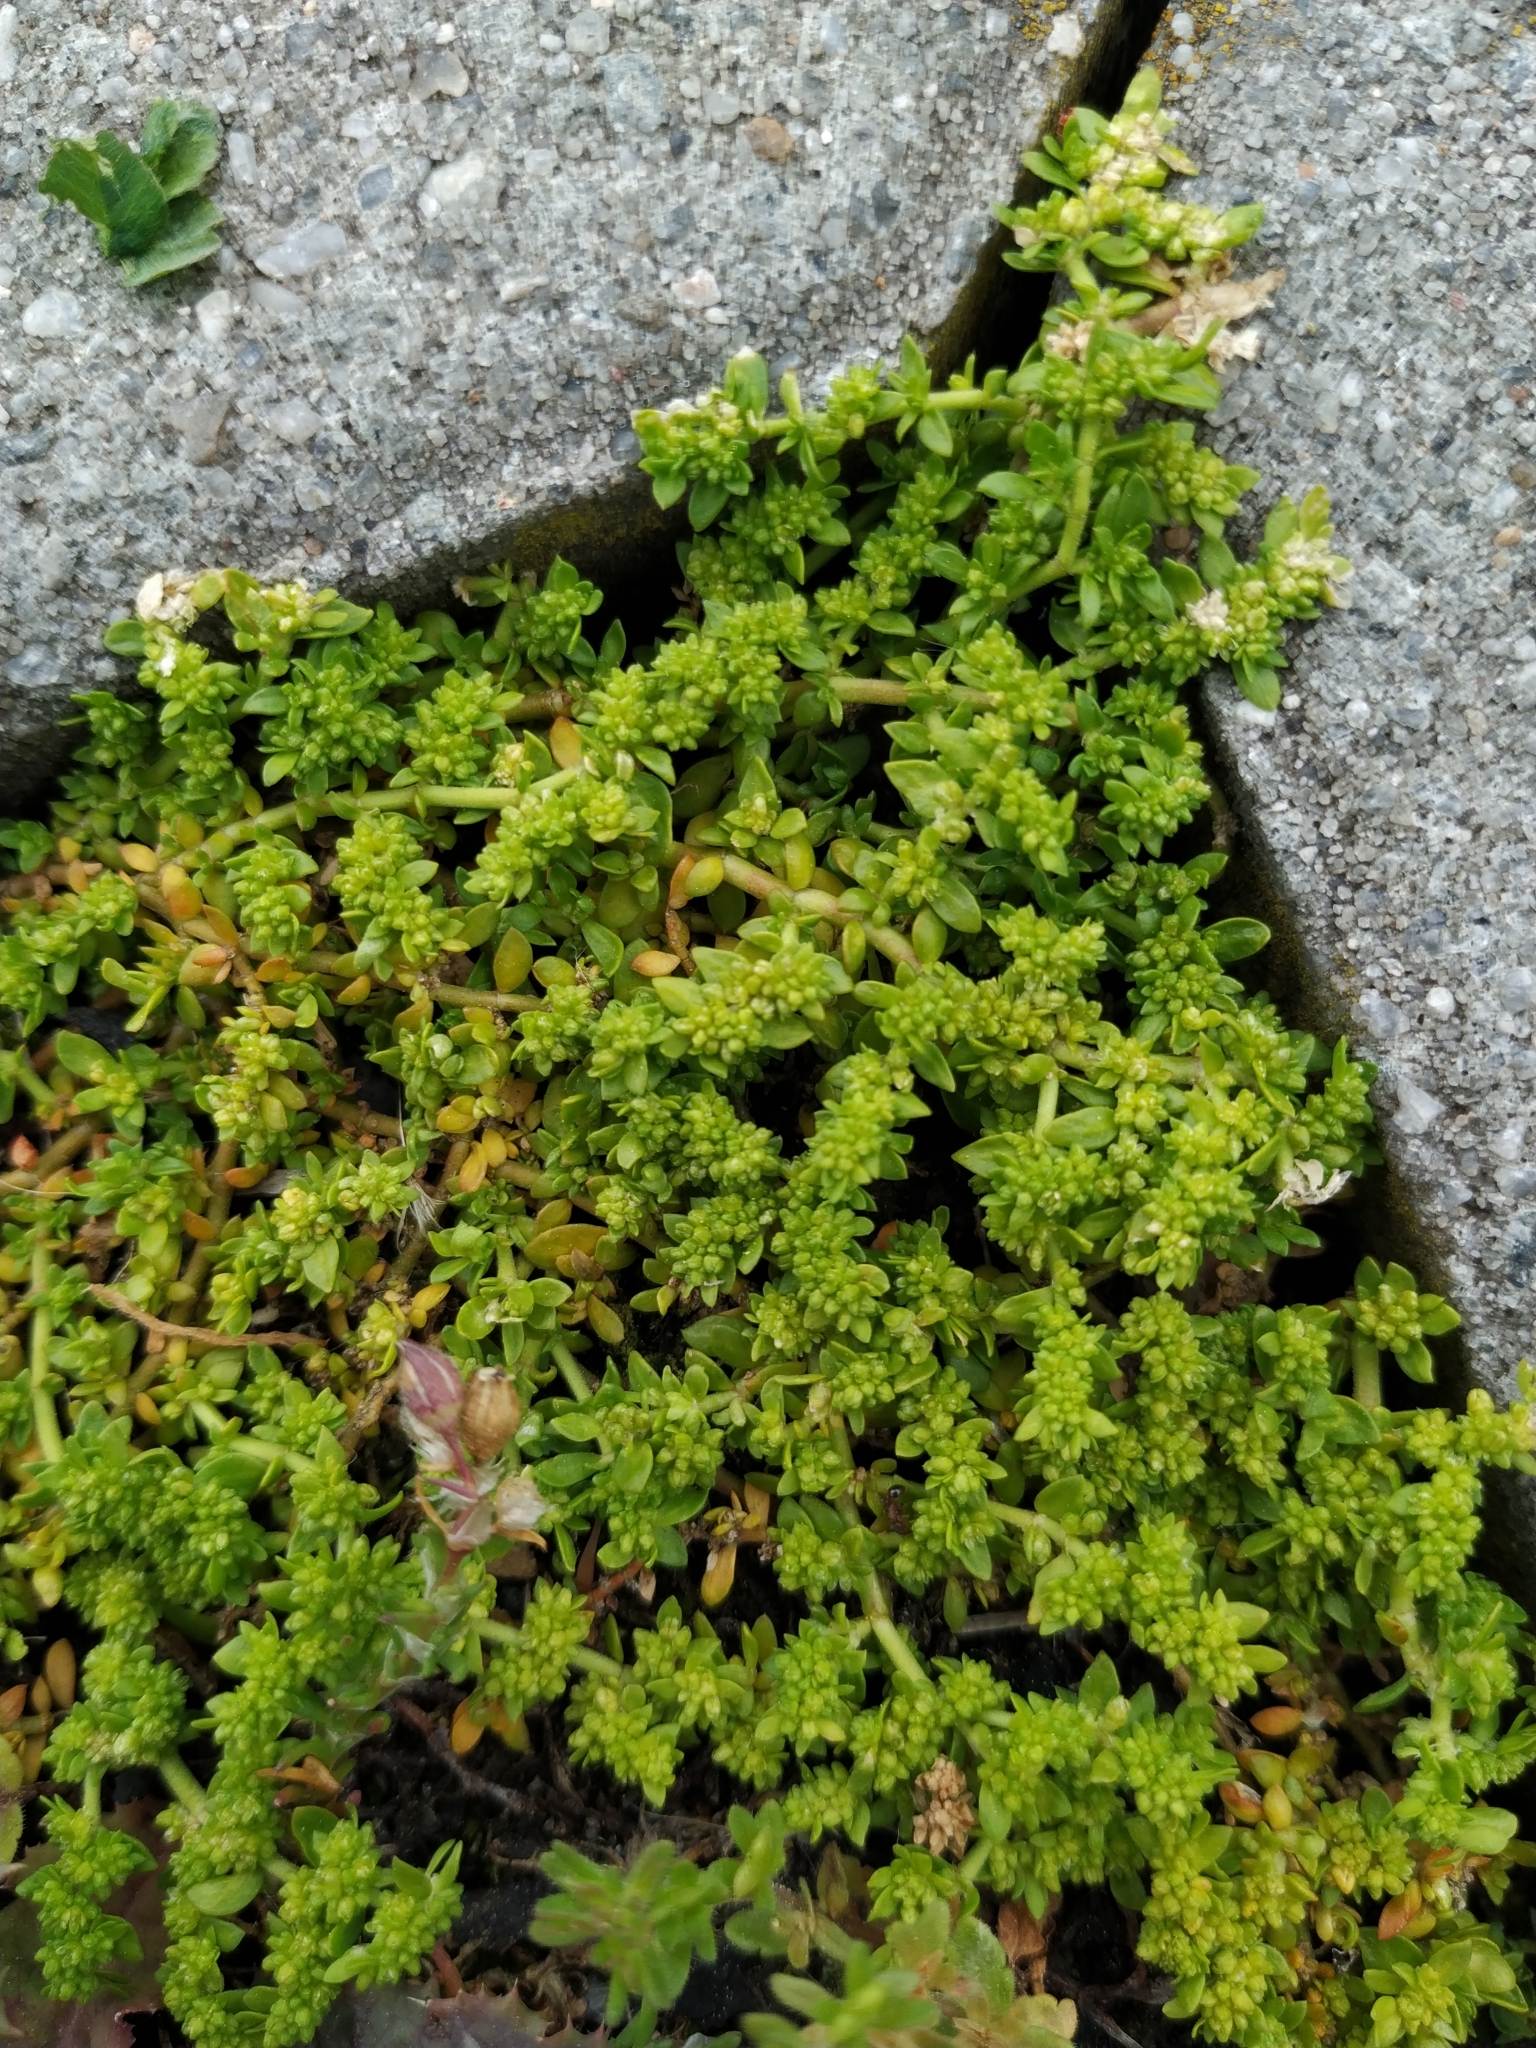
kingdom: Plantae
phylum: Tracheophyta
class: Magnoliopsida
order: Caryophyllales
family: Caryophyllaceae
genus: Herniaria
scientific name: Herniaria glabra
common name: Smooth rupturewort
